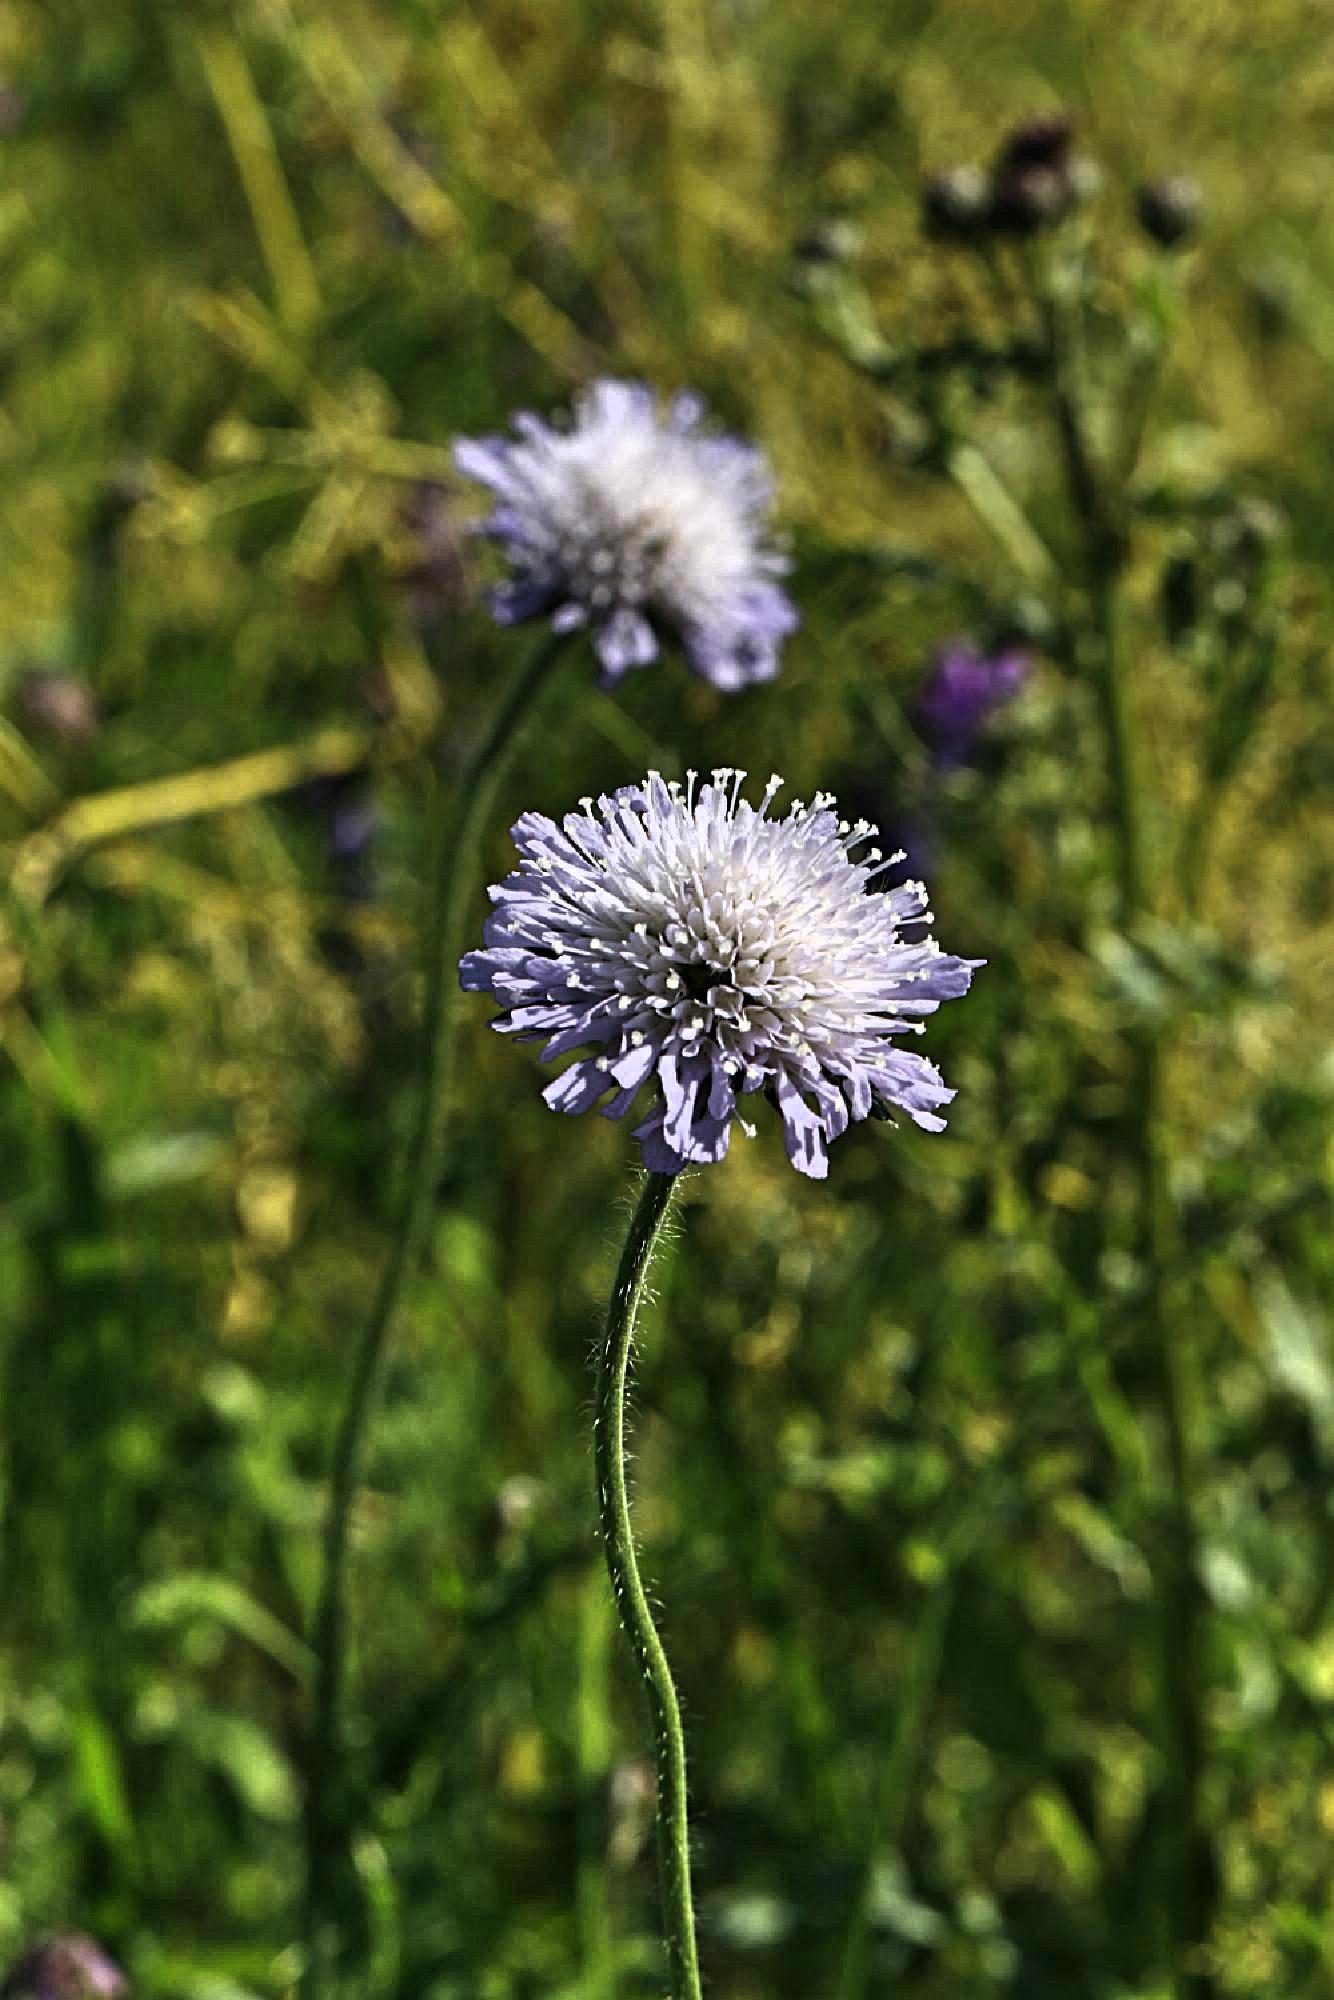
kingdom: Plantae
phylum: Tracheophyta
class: Magnoliopsida
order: Dipsacales
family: Caprifoliaceae
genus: Knautia
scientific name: Knautia arvensis
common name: Field scabiosa
